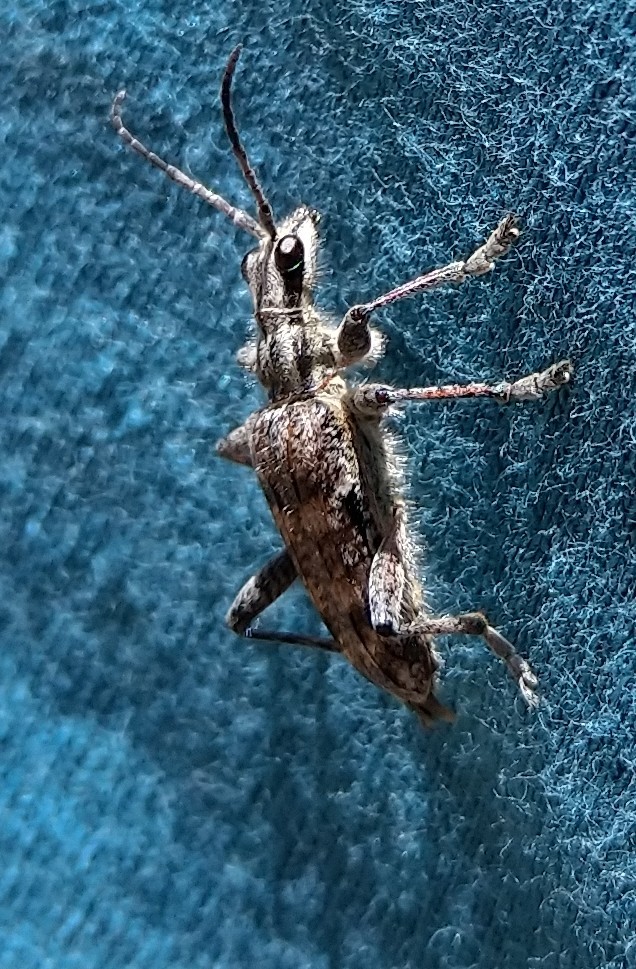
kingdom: Animalia
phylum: Arthropoda
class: Insecta
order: Coleoptera
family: Cerambycidae
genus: Rhagium
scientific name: Rhagium mordax
